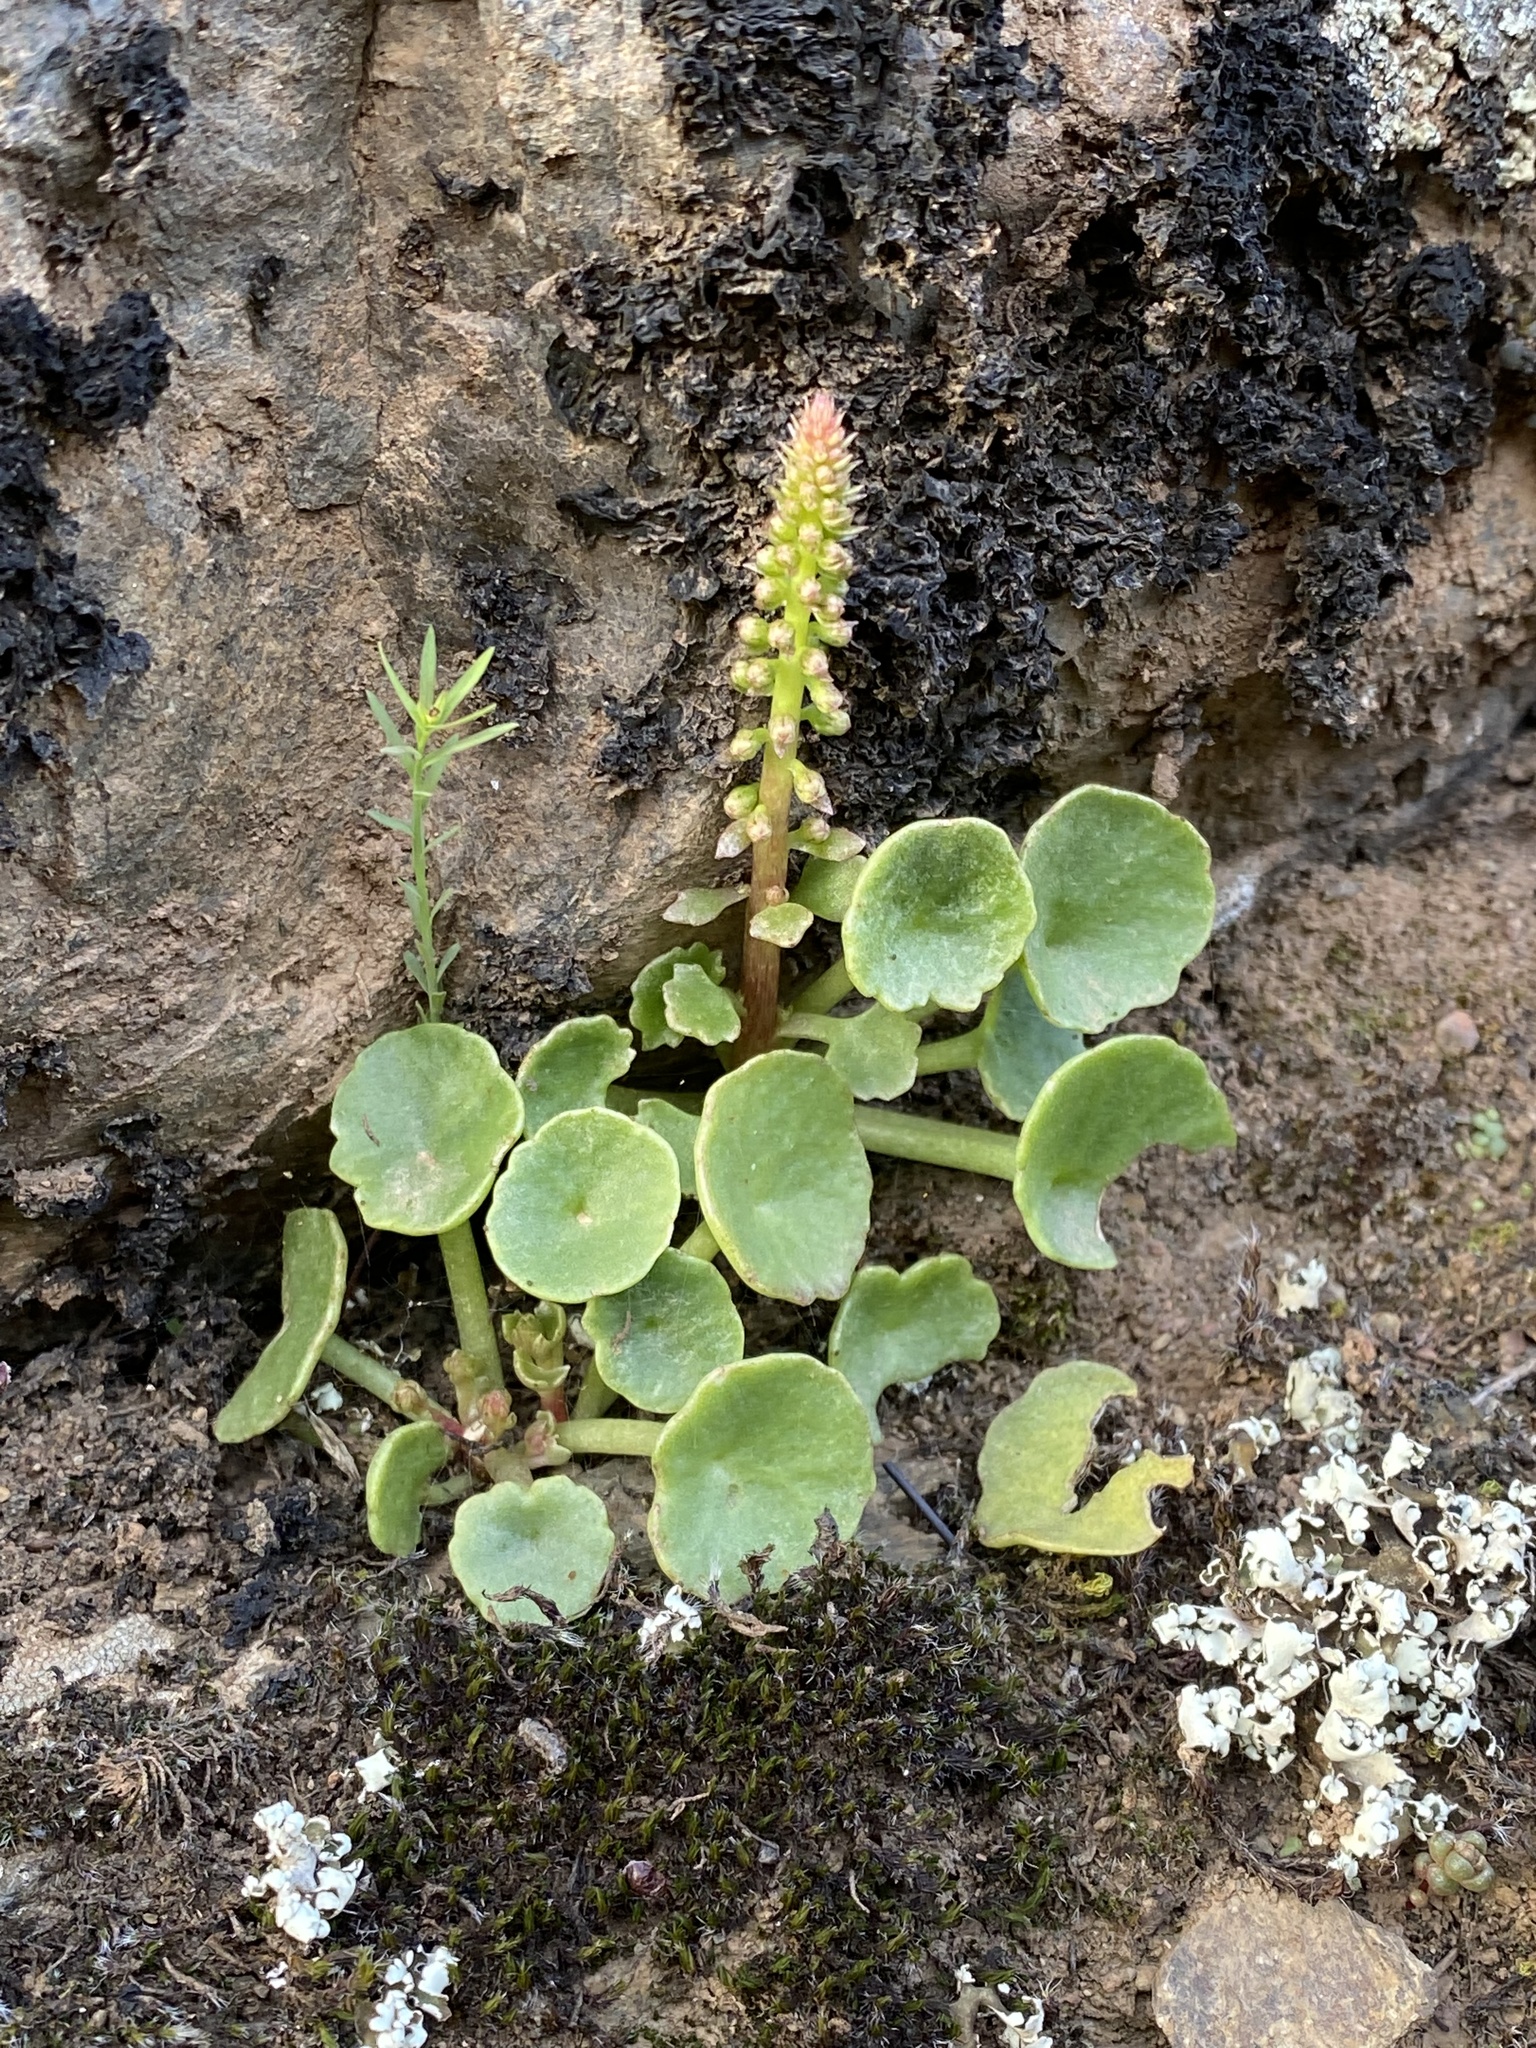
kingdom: Plantae
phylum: Tracheophyta
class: Magnoliopsida
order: Saxifragales
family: Crassulaceae
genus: Umbilicus
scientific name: Umbilicus rupestris
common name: Navelwort
